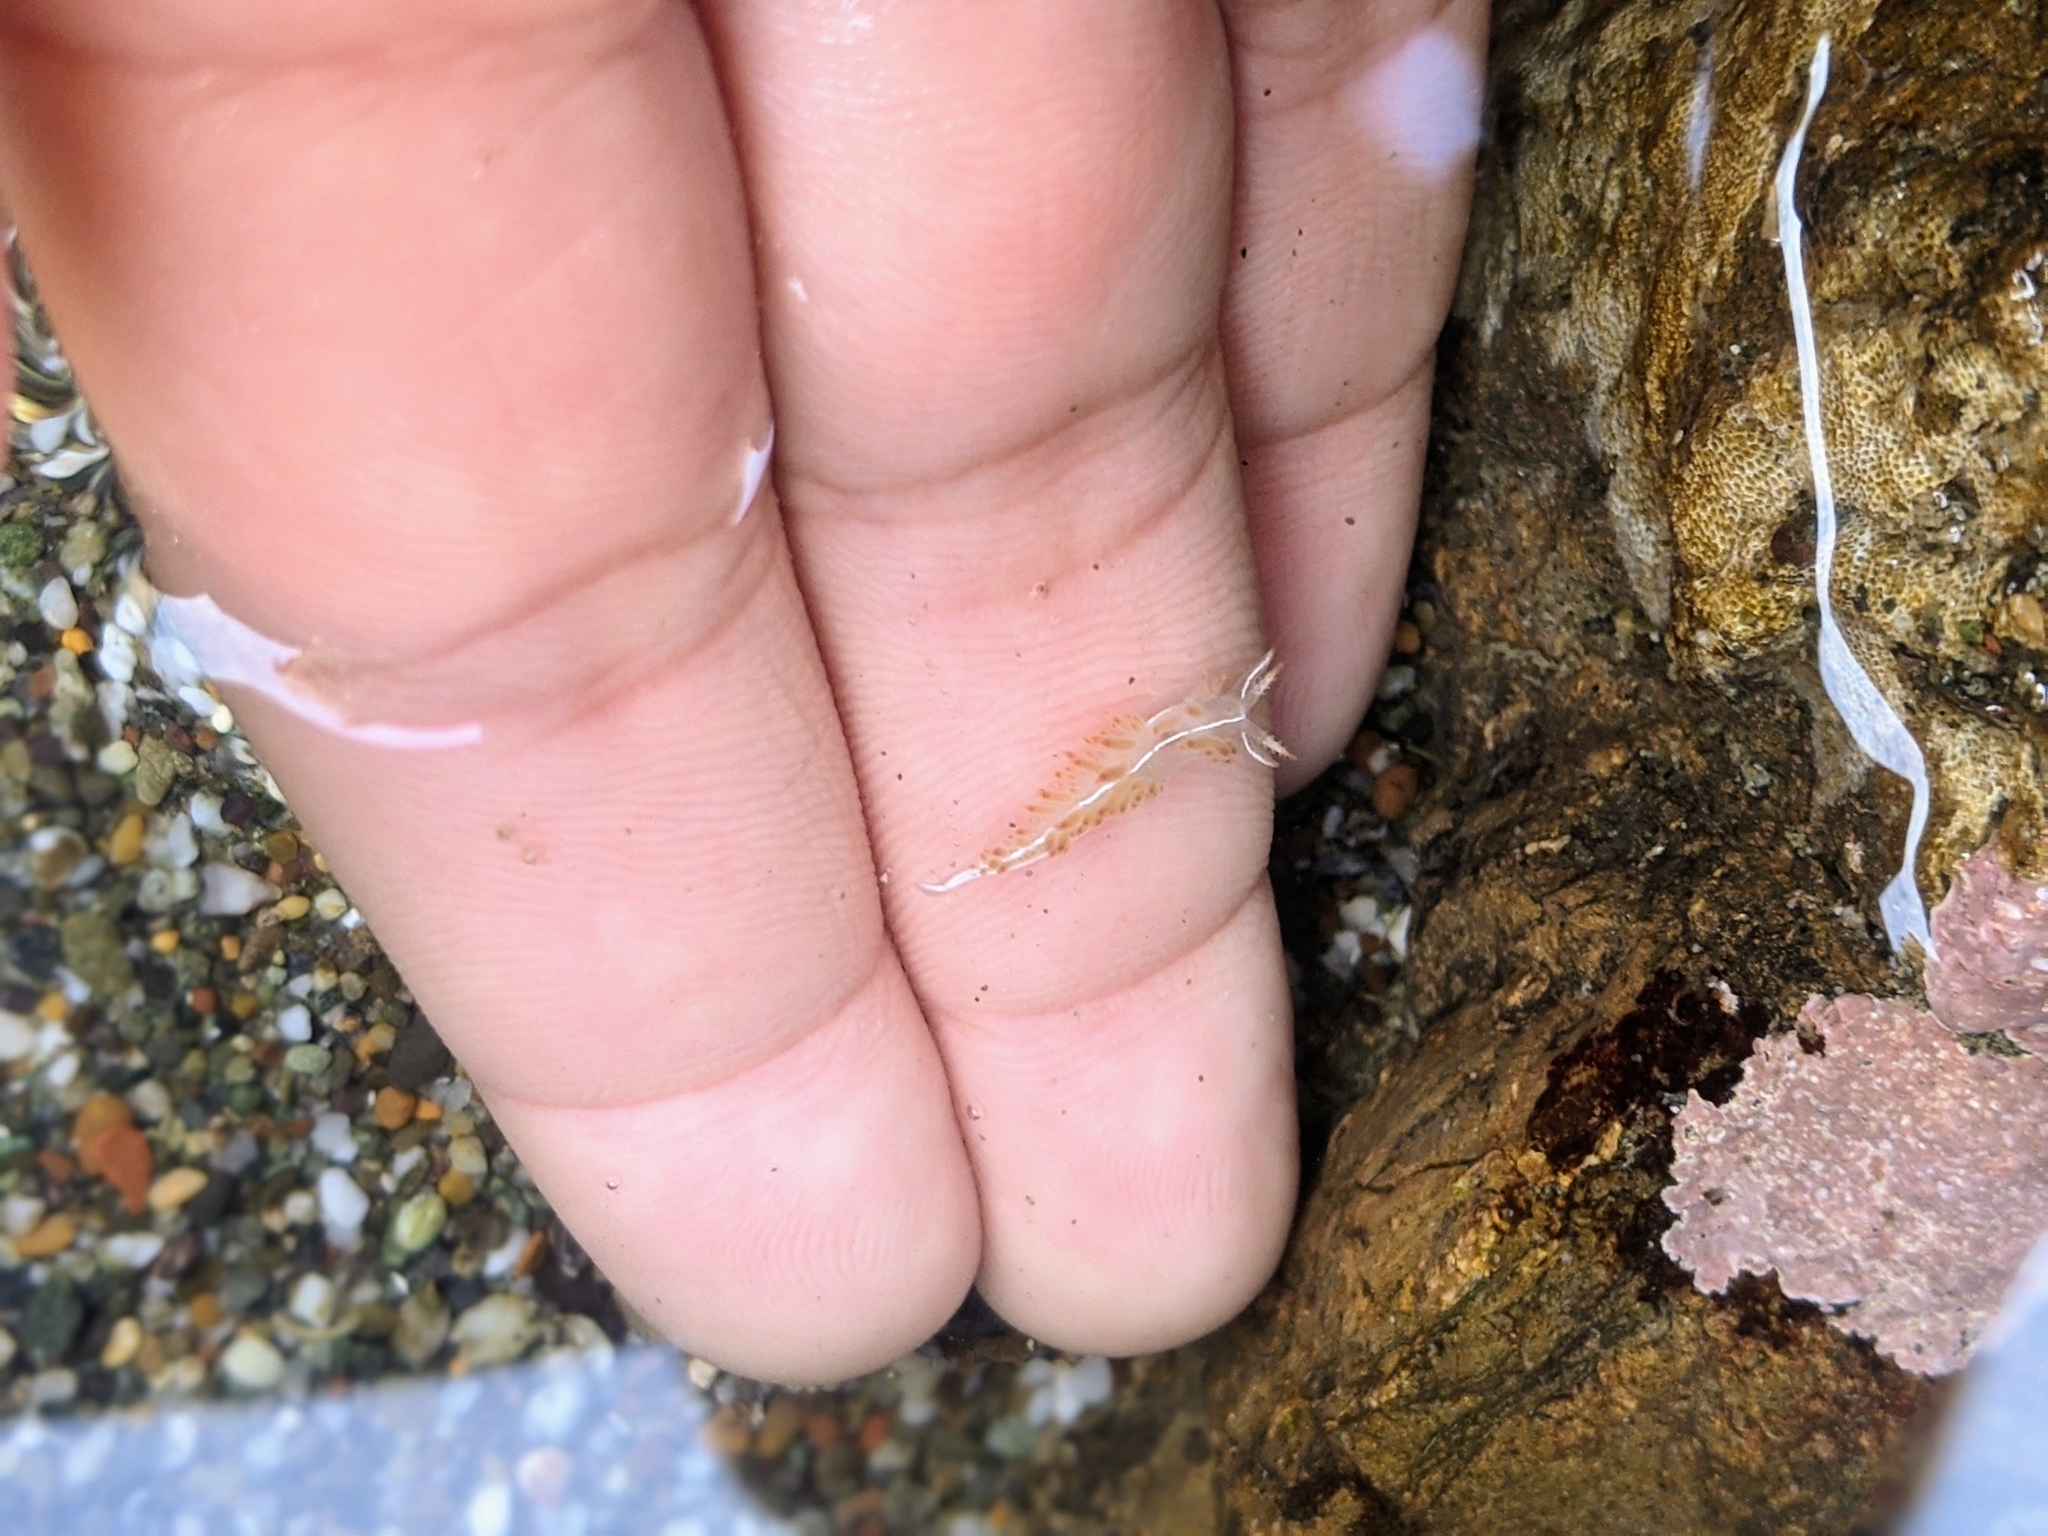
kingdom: Animalia
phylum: Mollusca
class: Gastropoda
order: Nudibranchia
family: Coryphellidae
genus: Coryphella
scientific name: Coryphella trilineata
